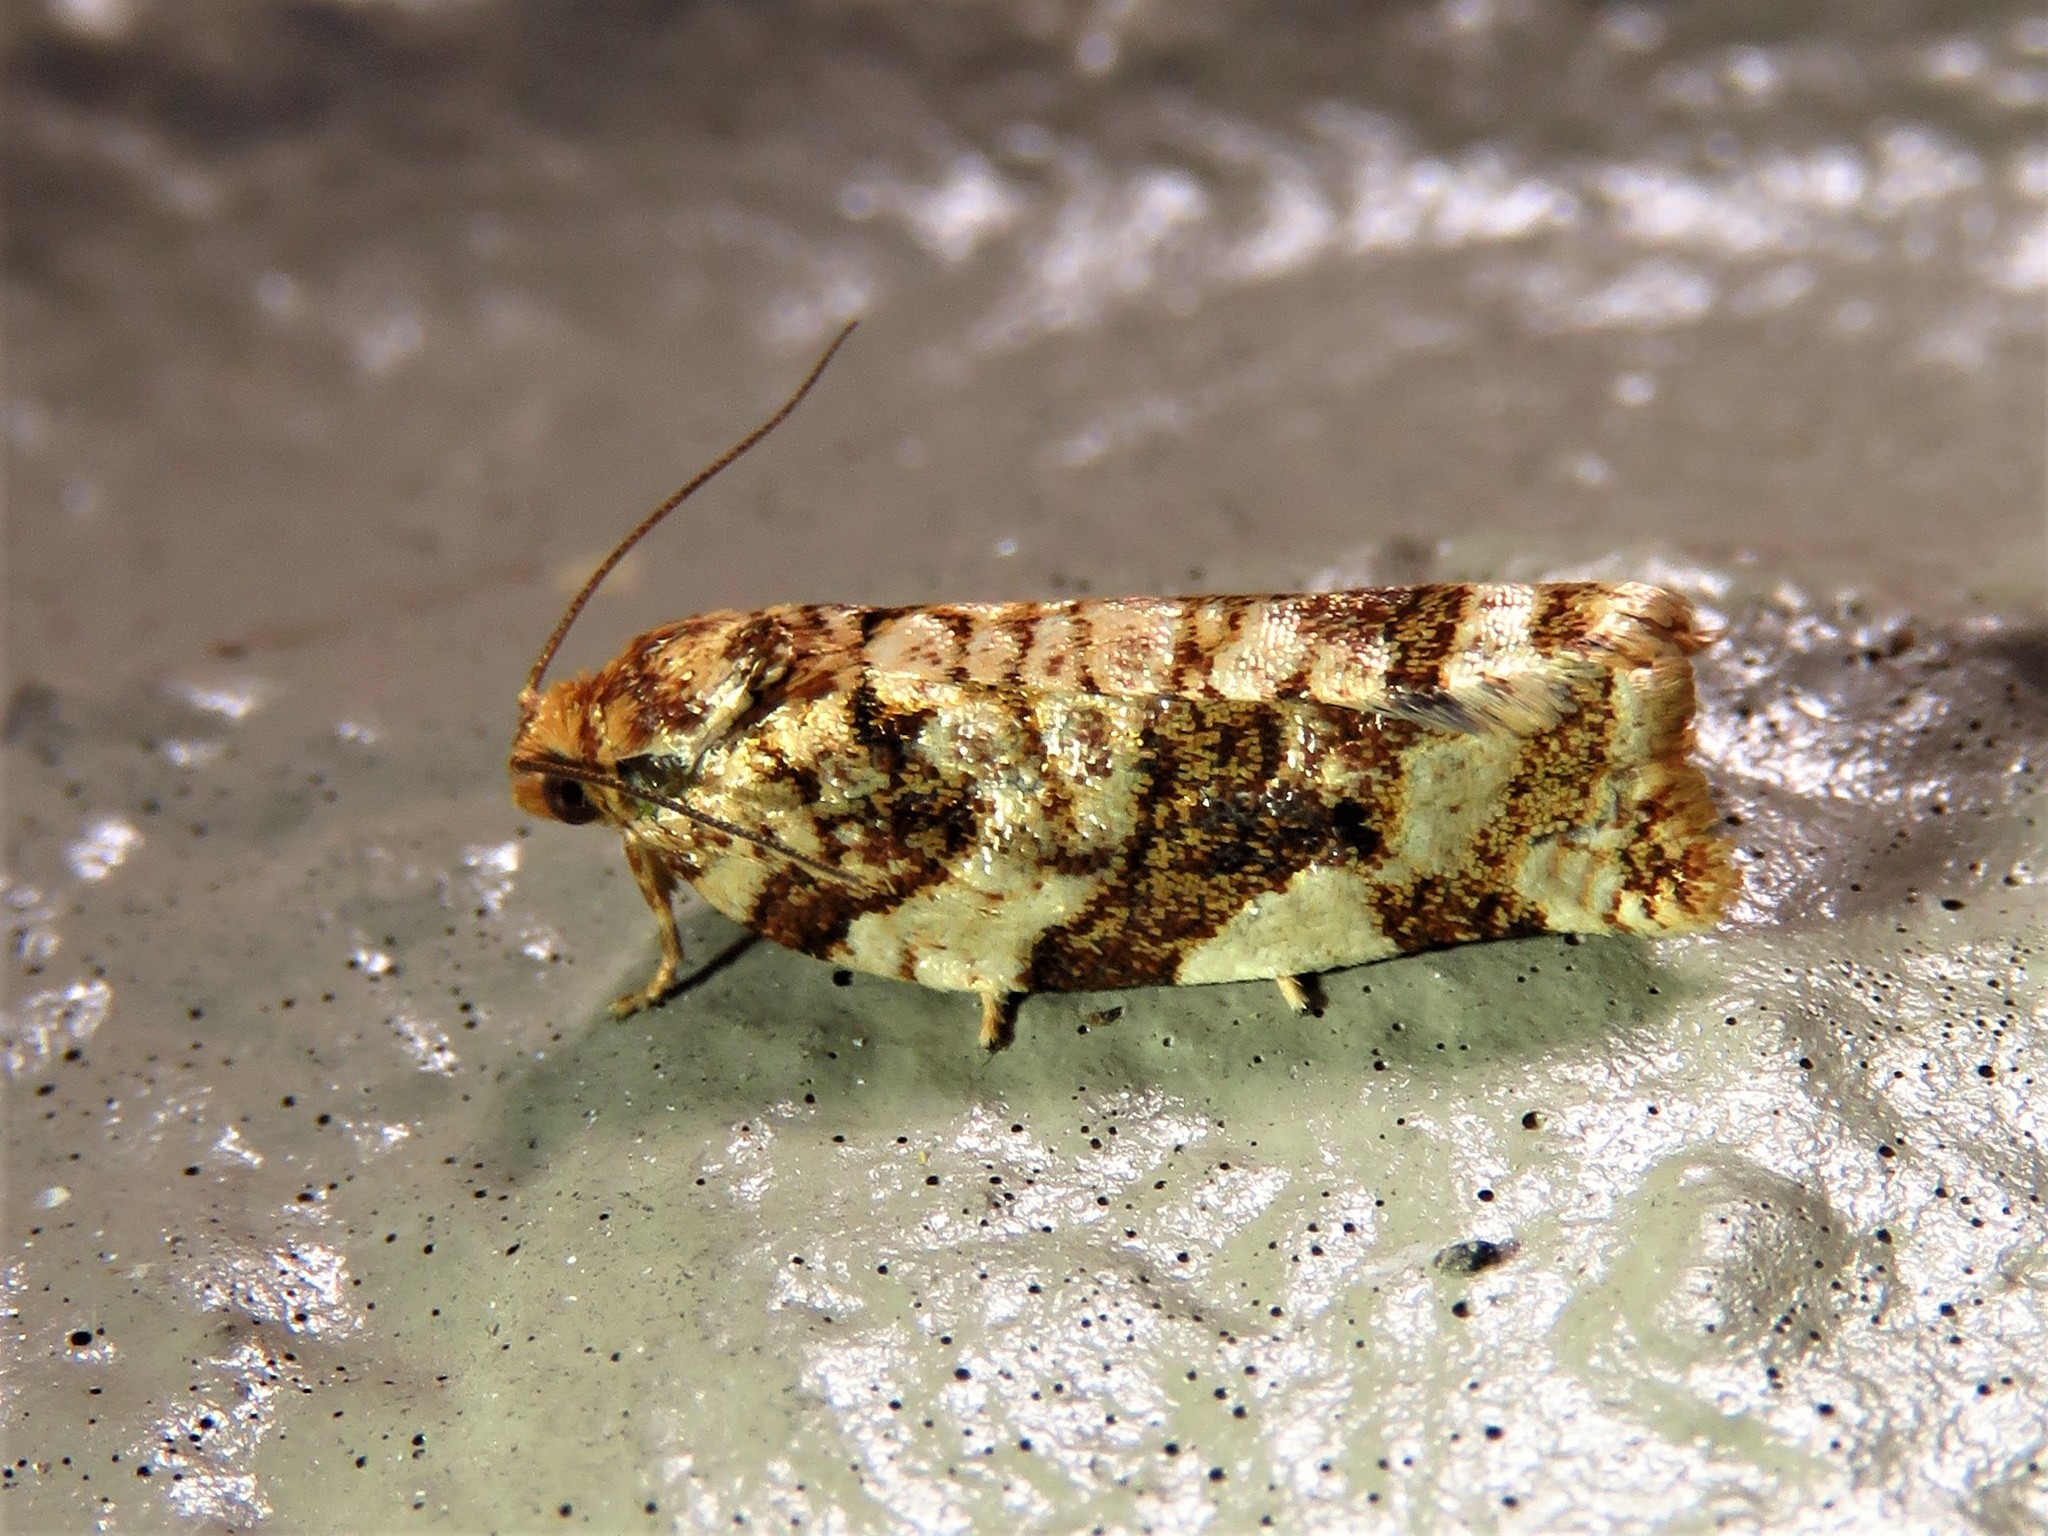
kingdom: Animalia
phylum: Arthropoda
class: Insecta
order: Lepidoptera
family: Tortricidae
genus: Archips
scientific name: Archips argyrospila
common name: Fruit-tree leafroller moth
